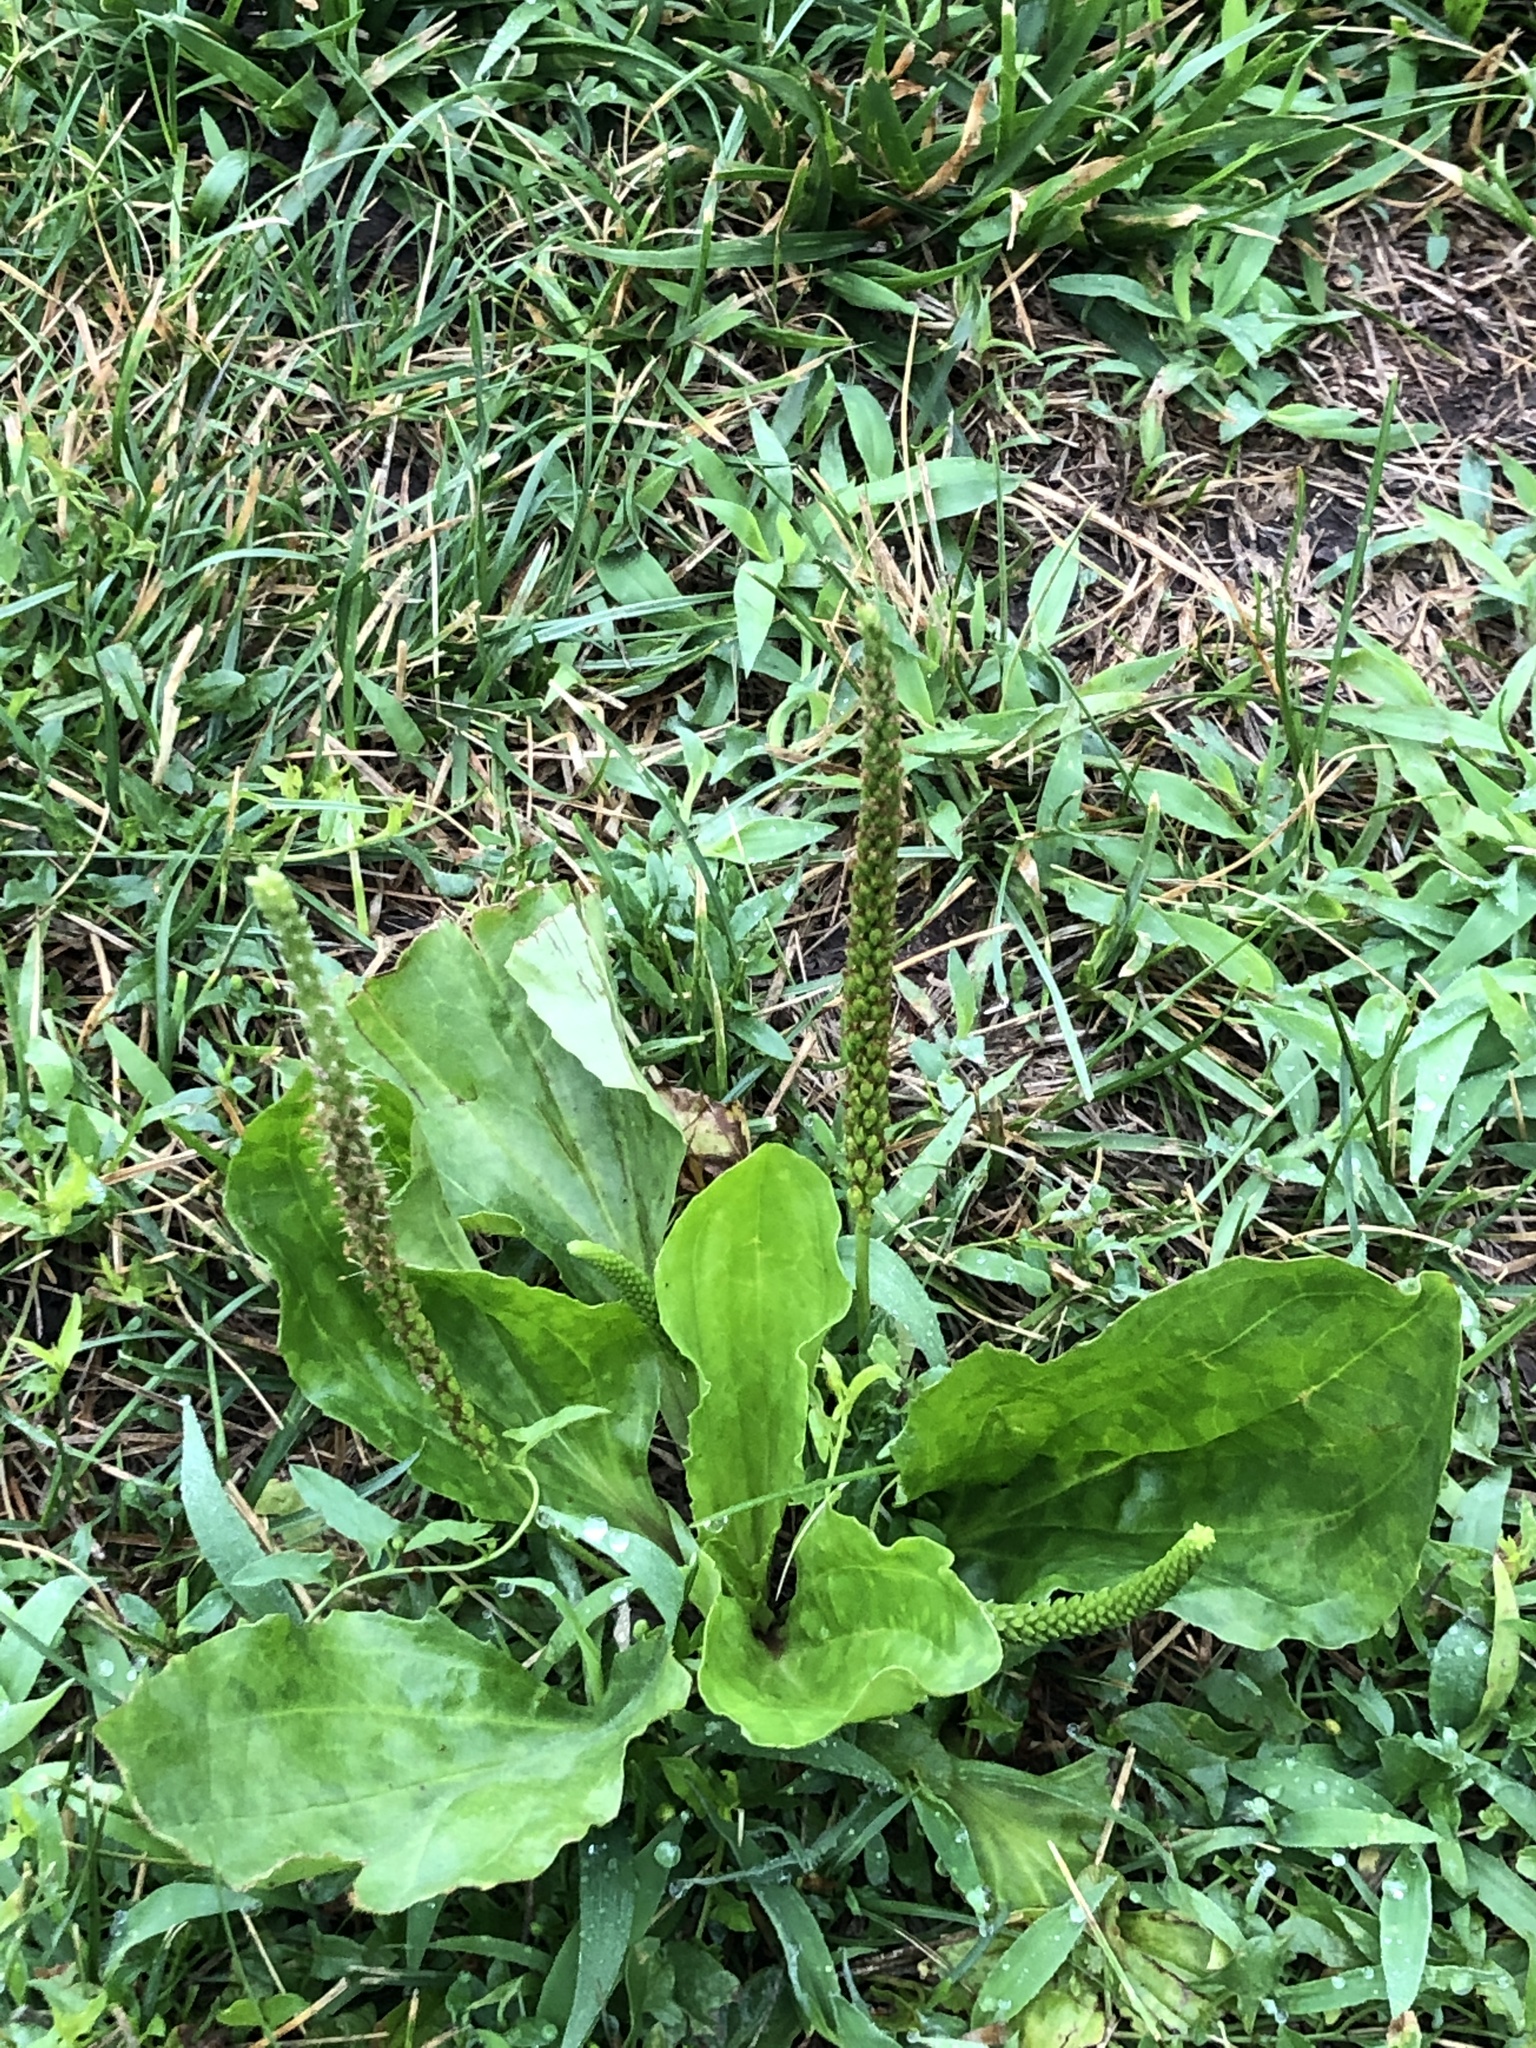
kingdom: Plantae
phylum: Tracheophyta
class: Magnoliopsida
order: Lamiales
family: Plantaginaceae
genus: Plantago
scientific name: Plantago major
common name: Common plantain
